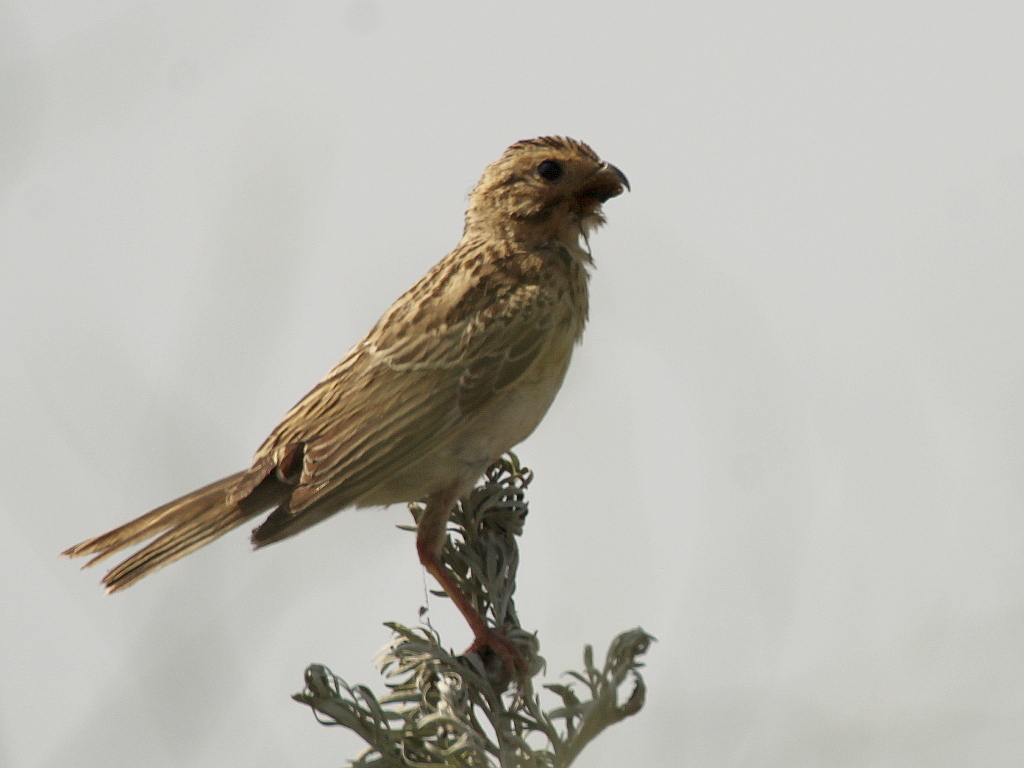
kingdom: Animalia
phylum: Chordata
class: Aves
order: Passeriformes
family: Emberizidae
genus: Emberiza
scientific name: Emberiza calandra
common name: Corn bunting
